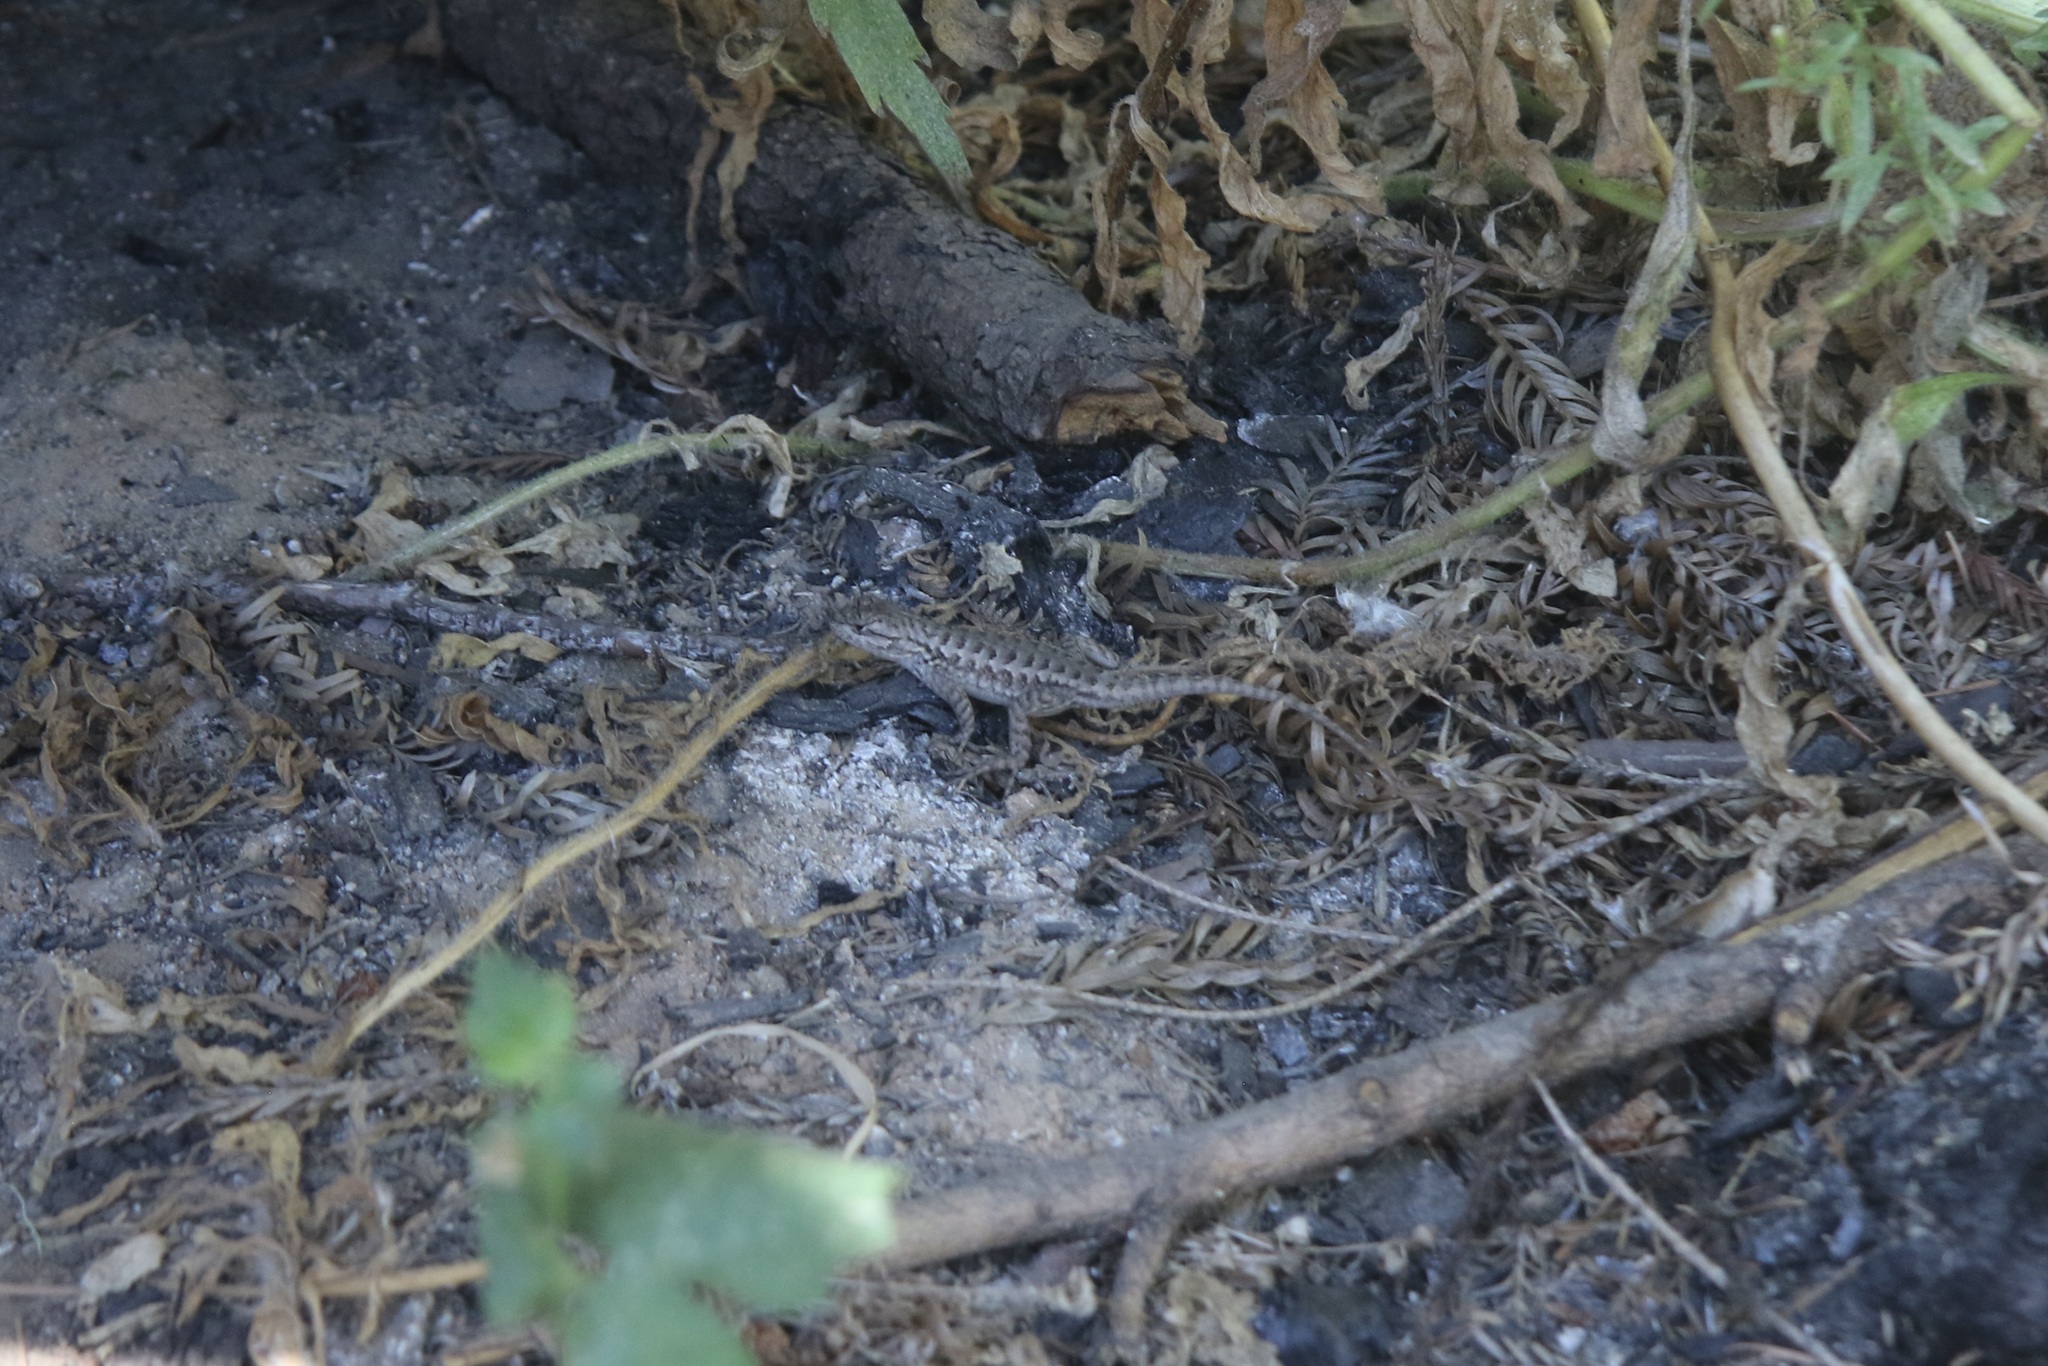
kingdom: Animalia
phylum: Chordata
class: Squamata
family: Phrynosomatidae
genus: Sceloporus
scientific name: Sceloporus occidentalis
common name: Western fence lizard
